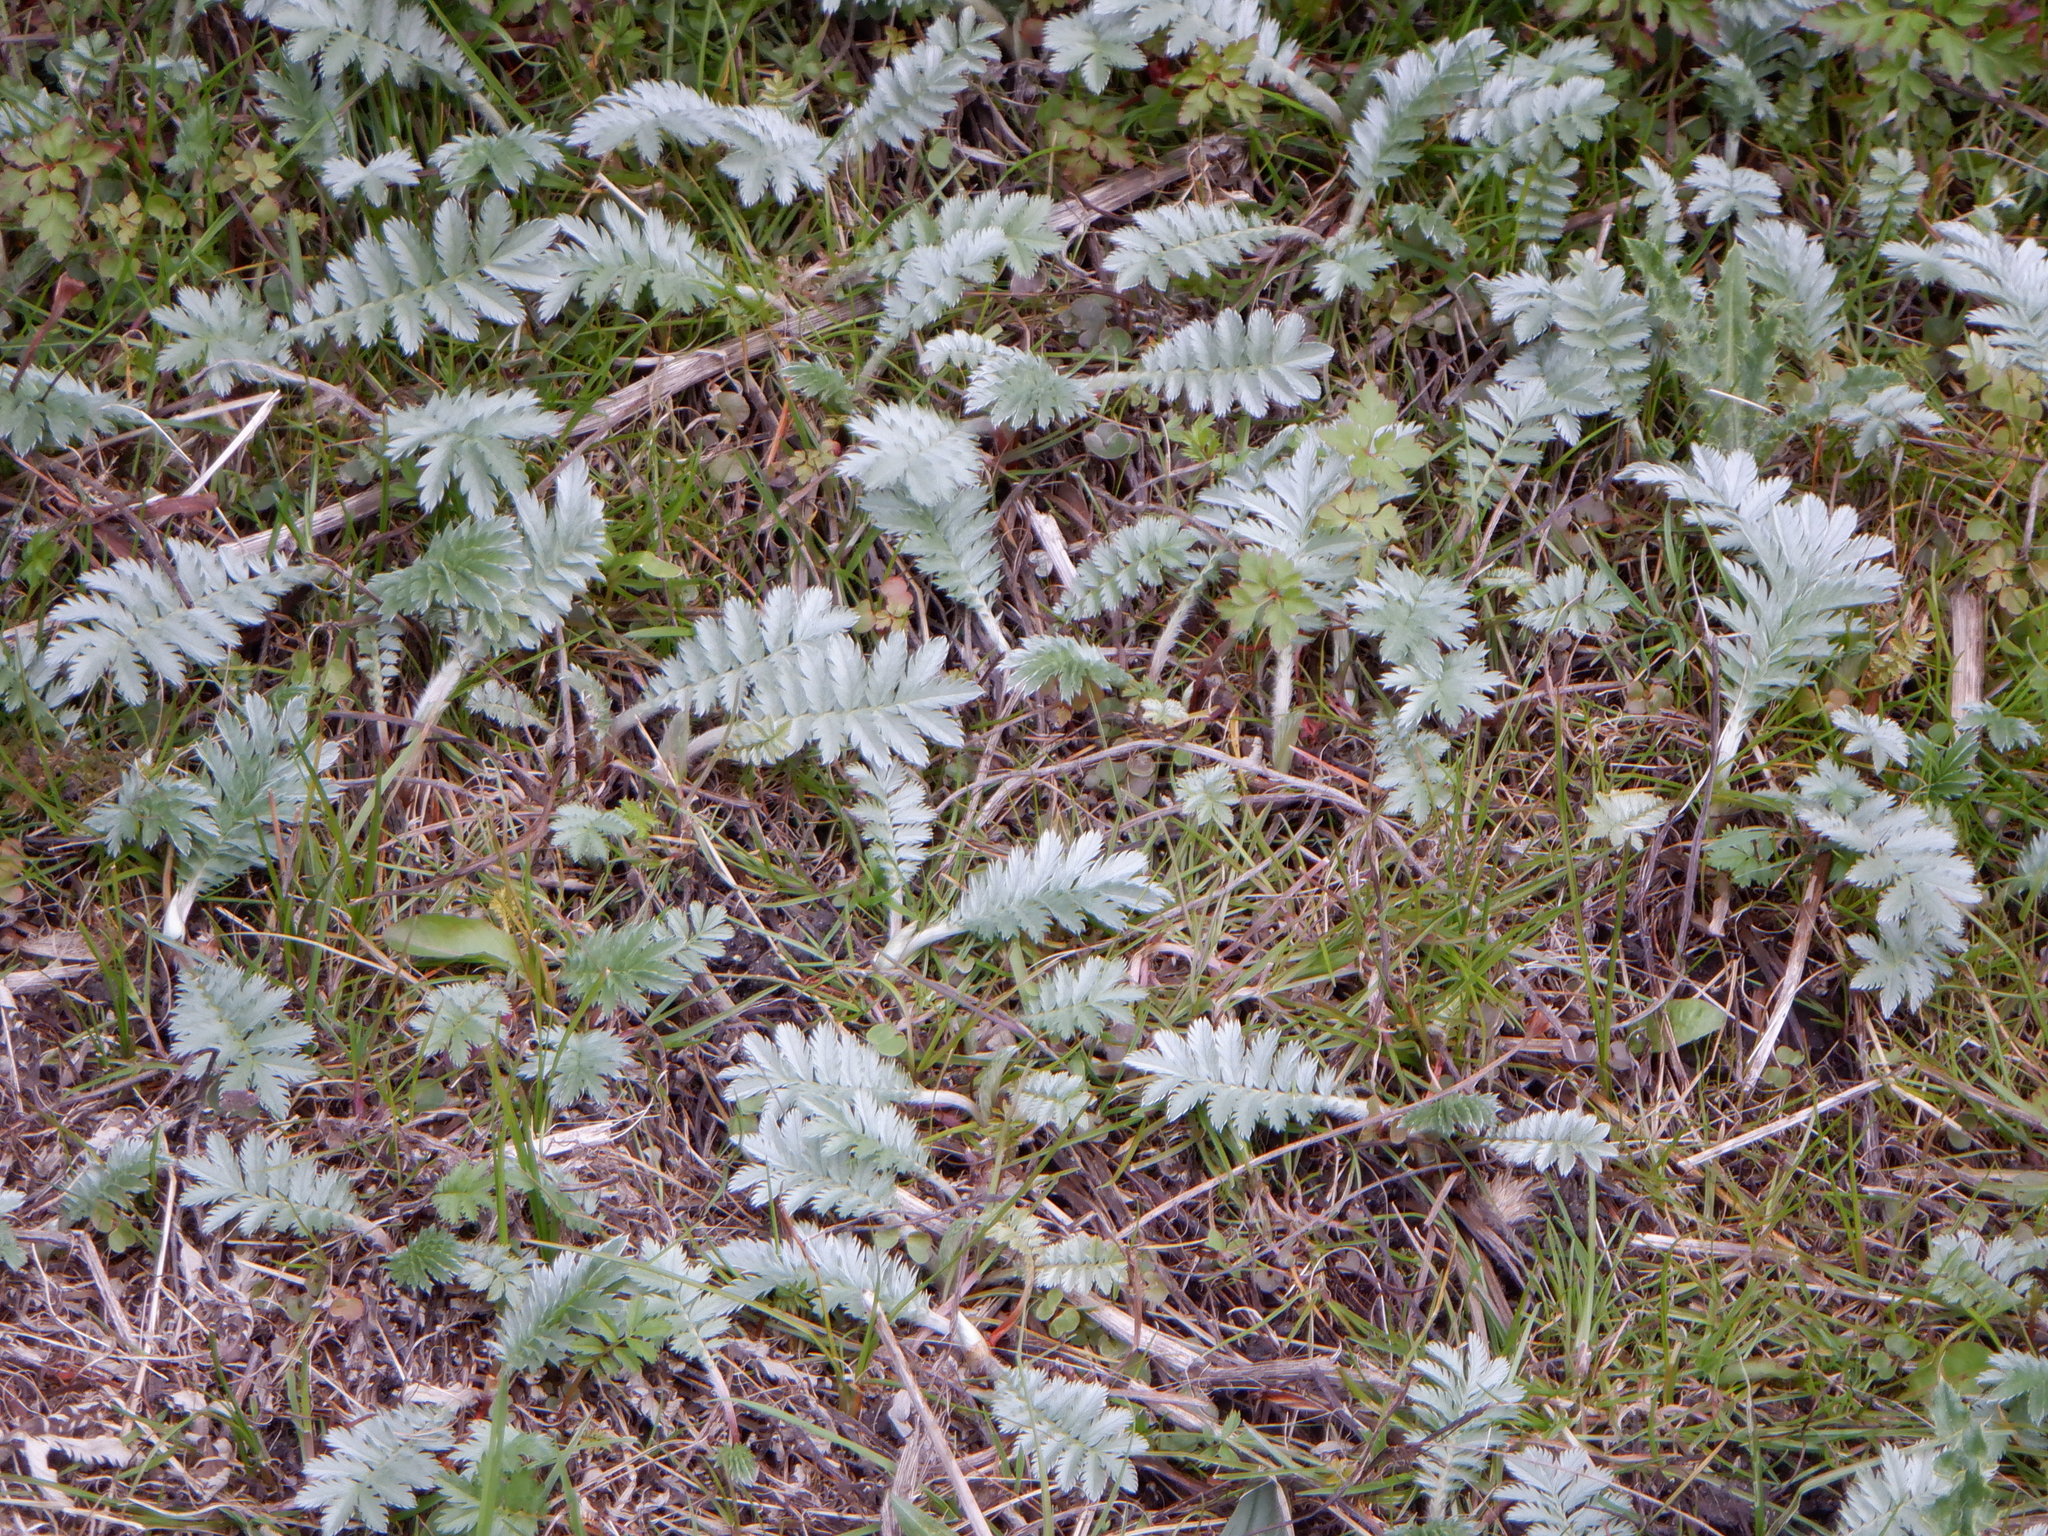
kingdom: Plantae
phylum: Tracheophyta
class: Magnoliopsida
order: Rosales
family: Rosaceae
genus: Argentina
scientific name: Argentina anserina
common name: Common silverweed
